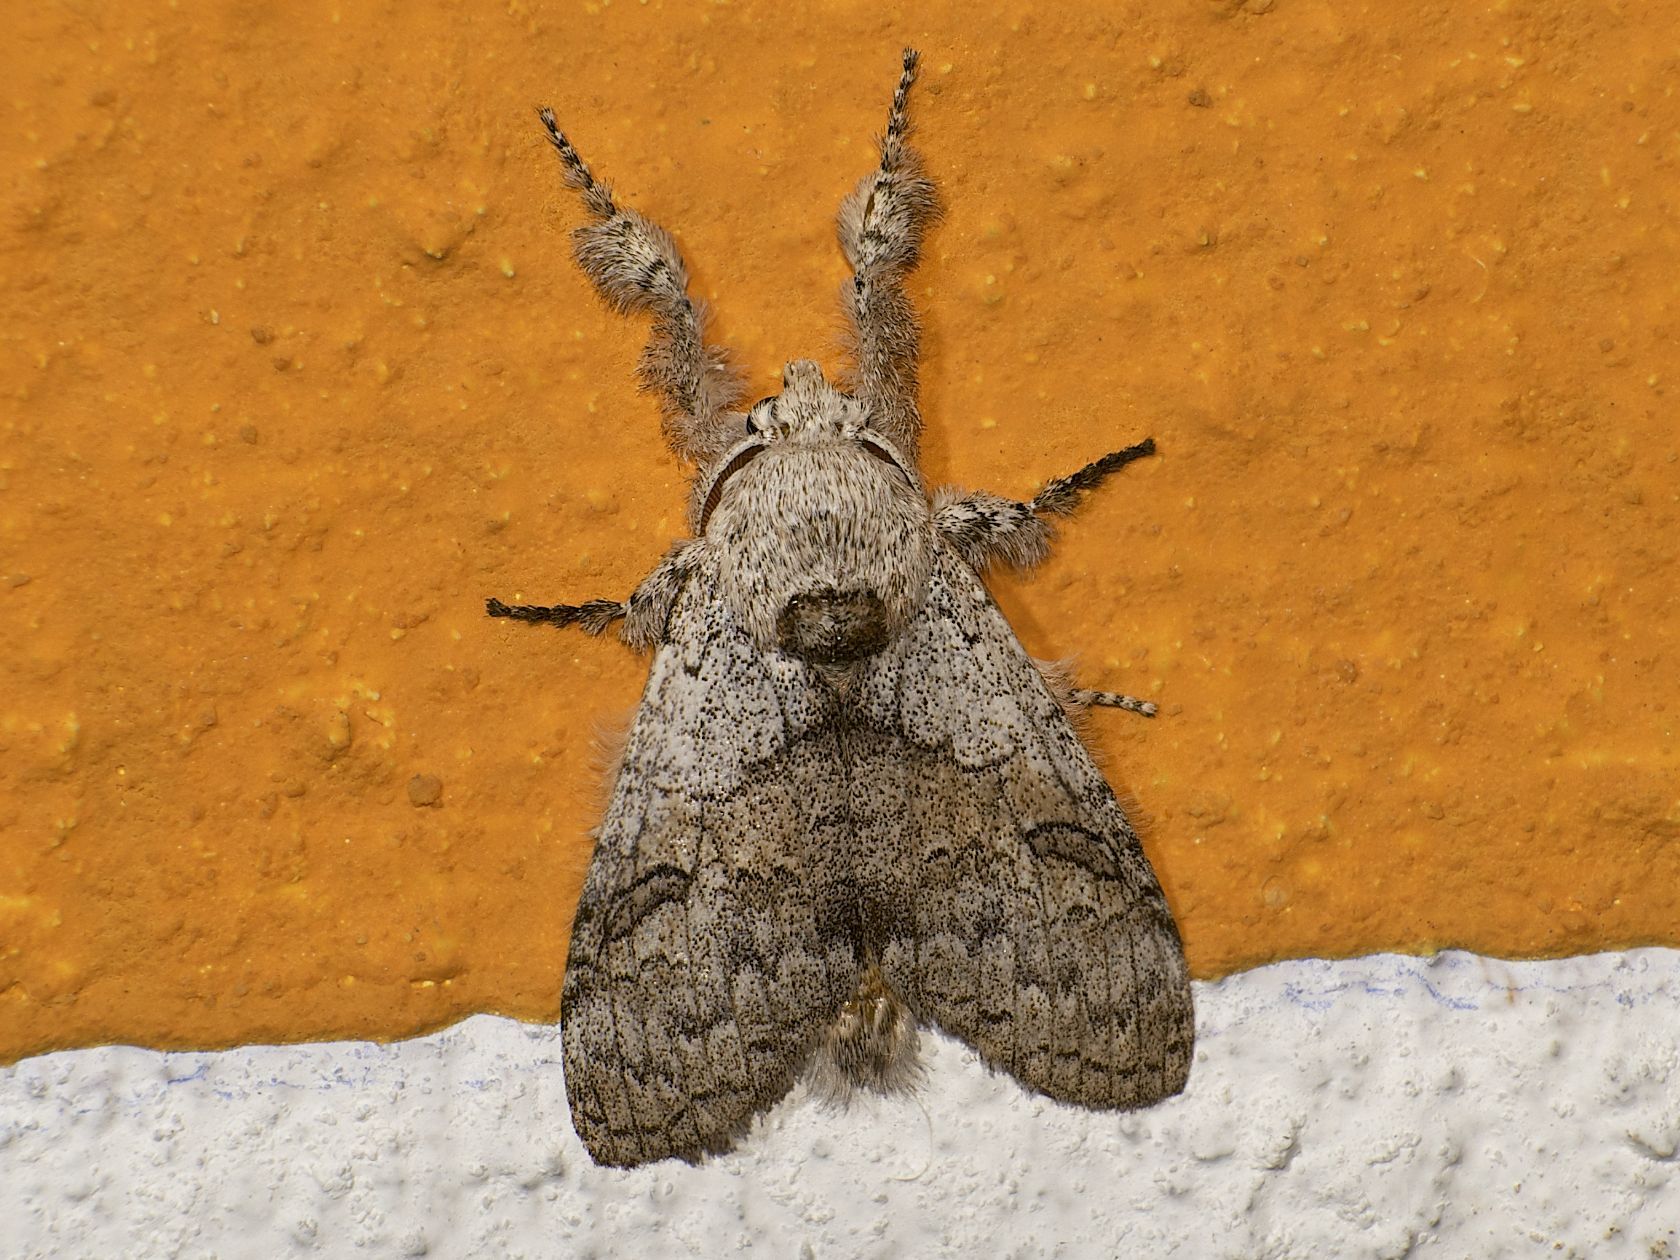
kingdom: Animalia
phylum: Arthropoda
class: Insecta
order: Lepidoptera
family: Erebidae
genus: Calliteara
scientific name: Calliteara grotei
